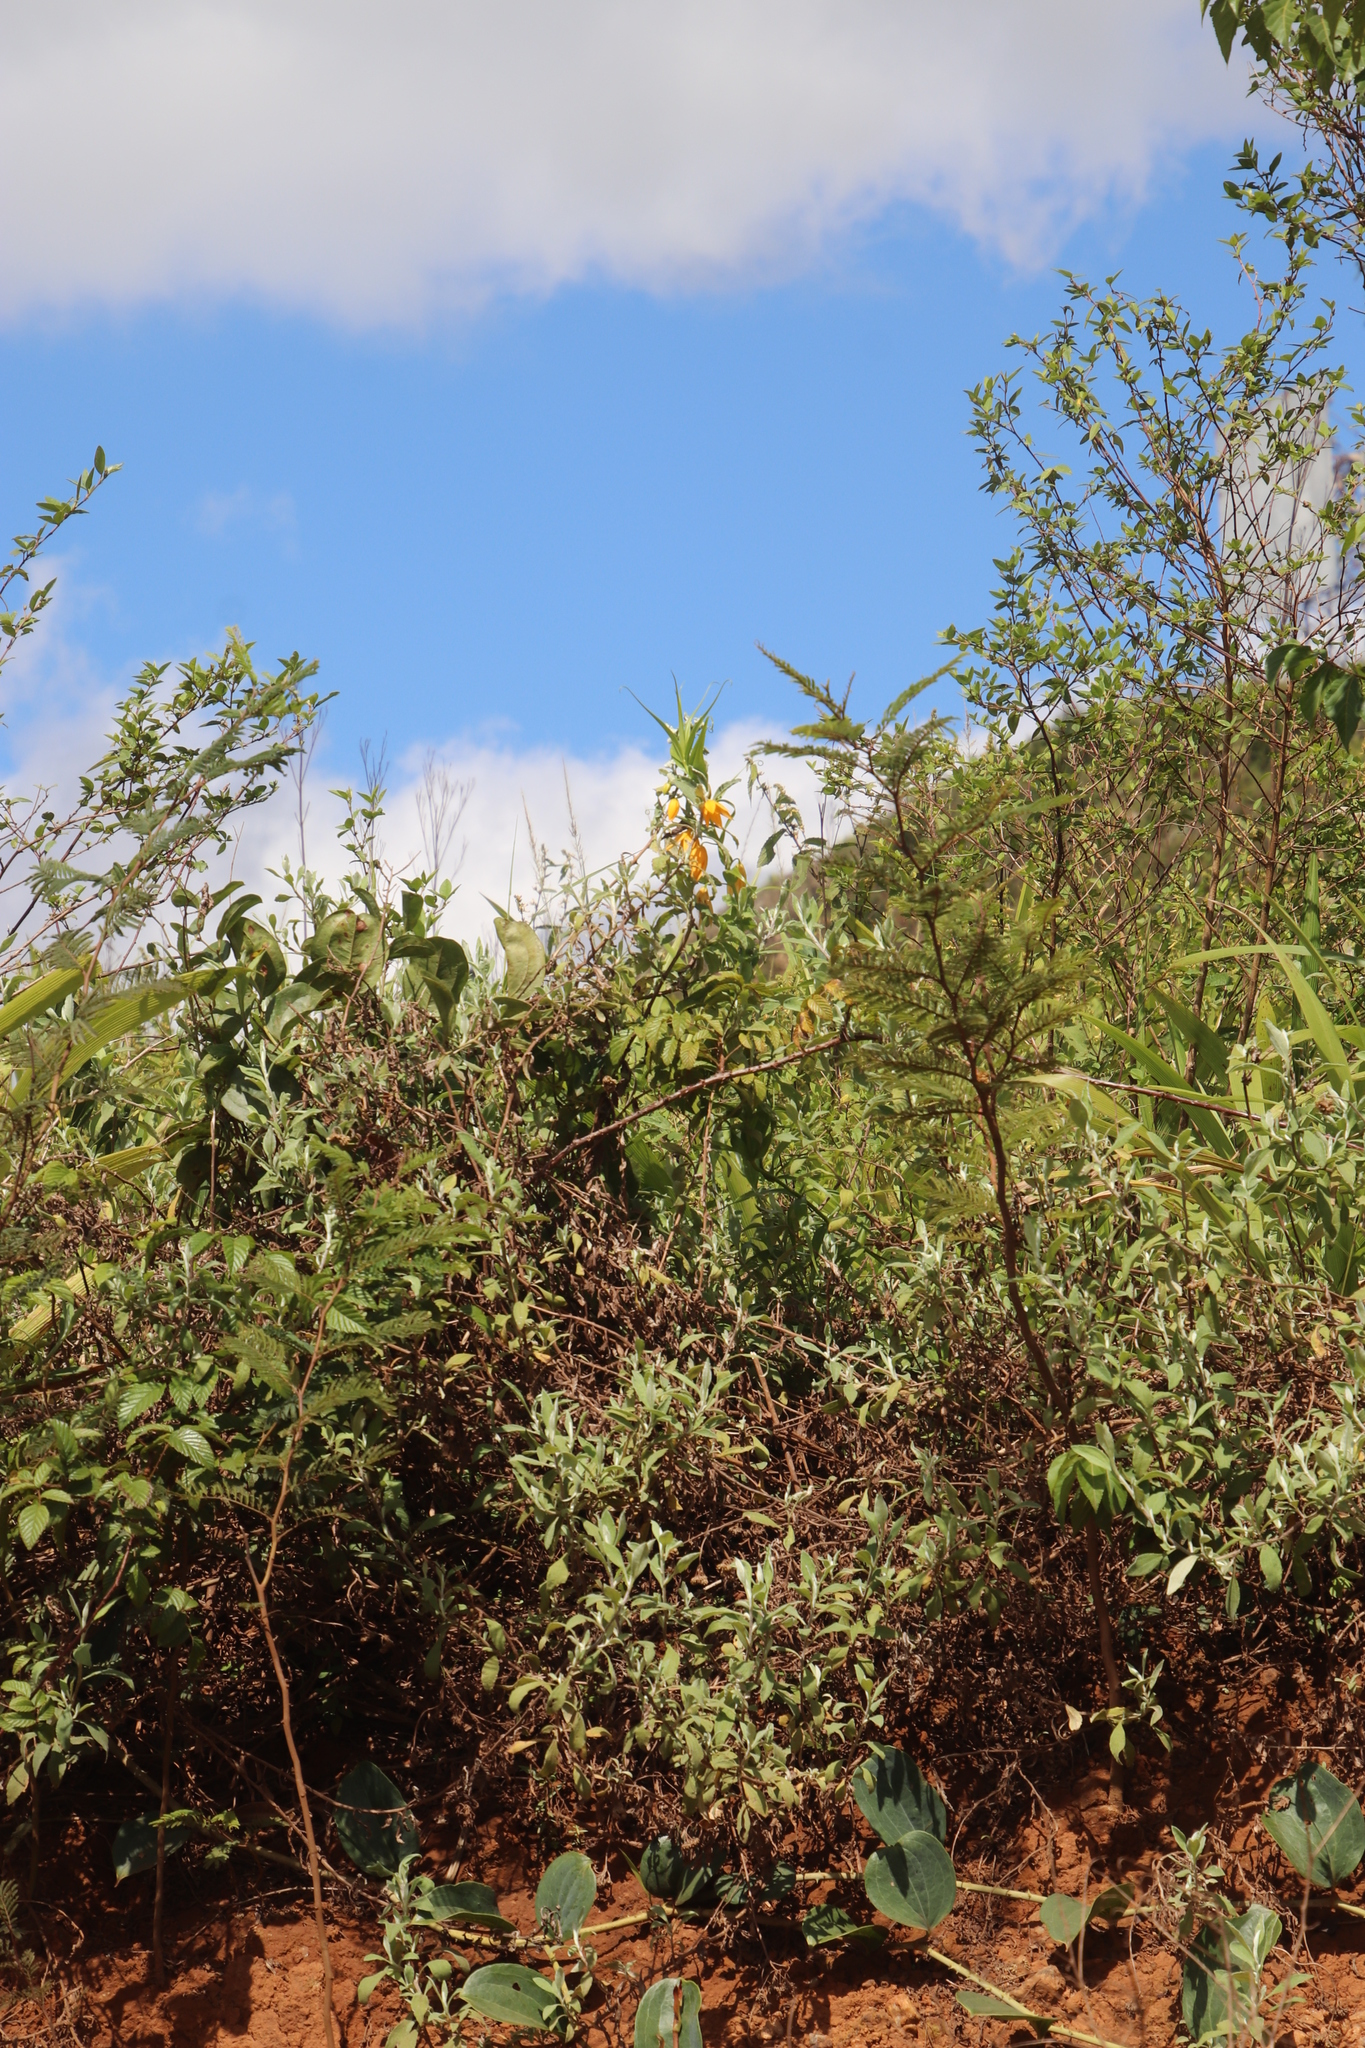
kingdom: Plantae
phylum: Tracheophyta
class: Liliopsida
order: Liliales
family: Colchicaceae
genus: Gloriosa
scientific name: Gloriosa modesta
